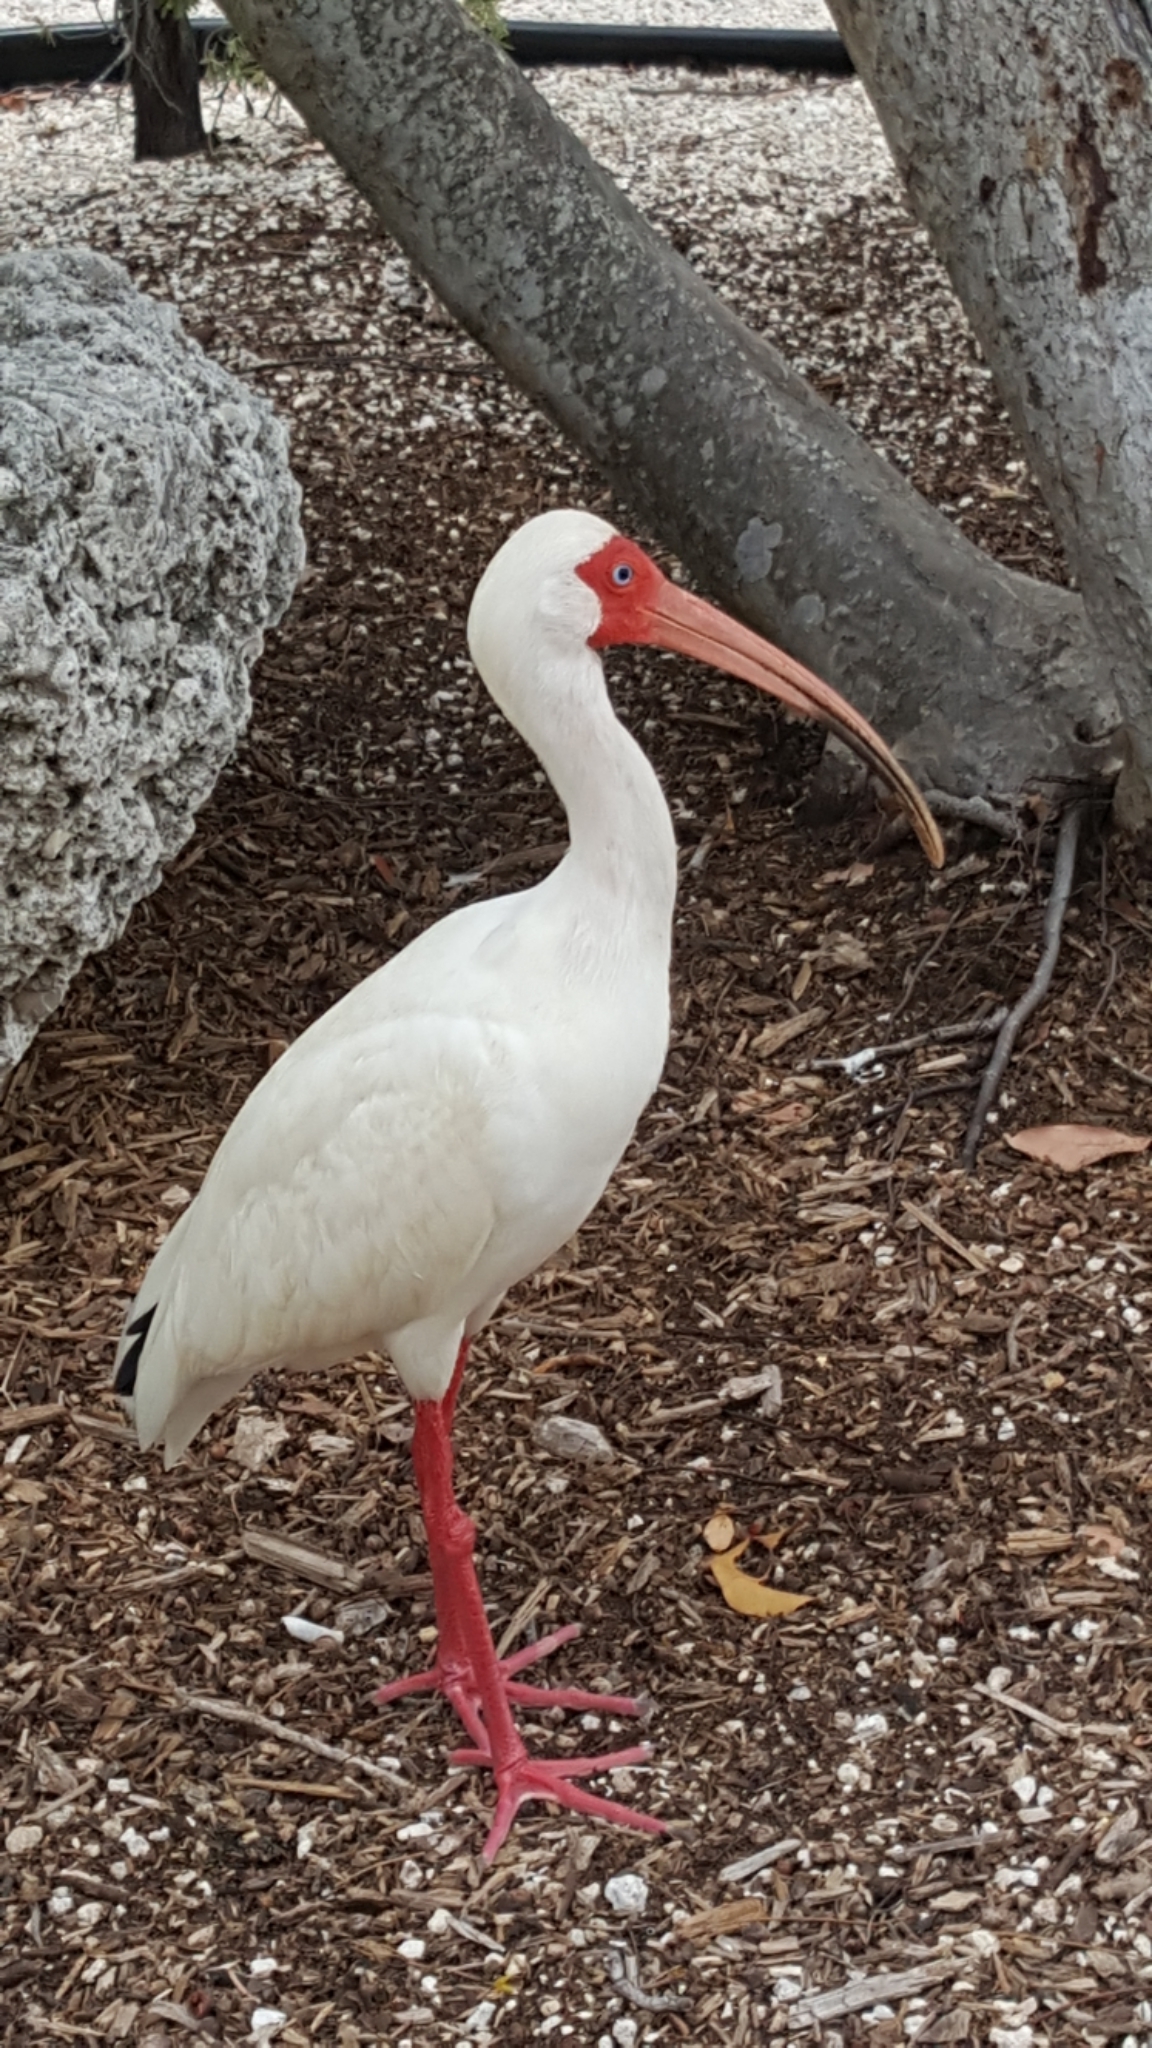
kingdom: Animalia
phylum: Chordata
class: Aves
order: Pelecaniformes
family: Threskiornithidae
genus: Eudocimus
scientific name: Eudocimus albus
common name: White ibis
